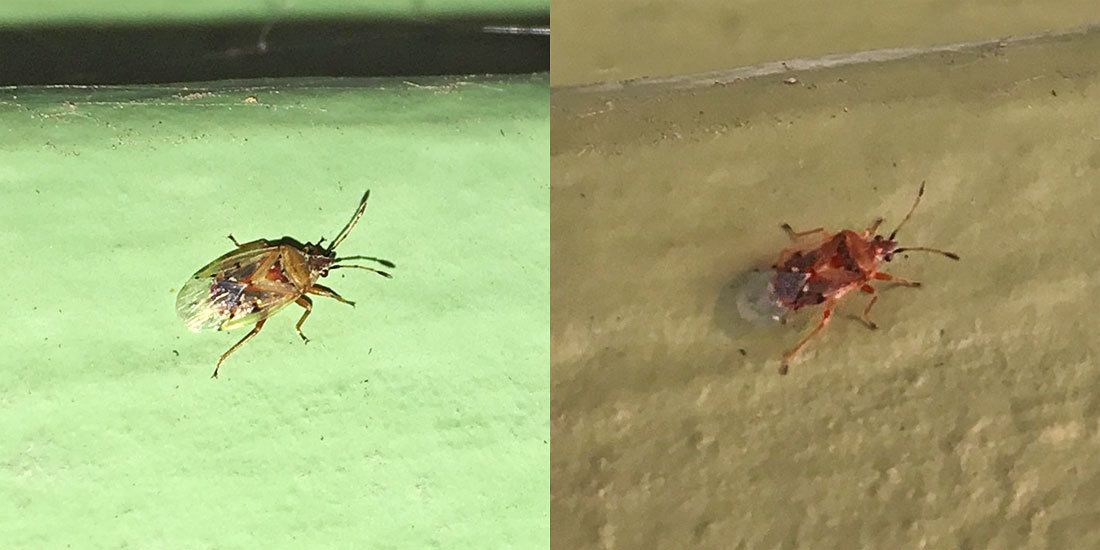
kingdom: Animalia
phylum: Arthropoda
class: Insecta
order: Hemiptera
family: Lygaeidae
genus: Kleidocerys
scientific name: Kleidocerys resedae
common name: Birch catkin bug
